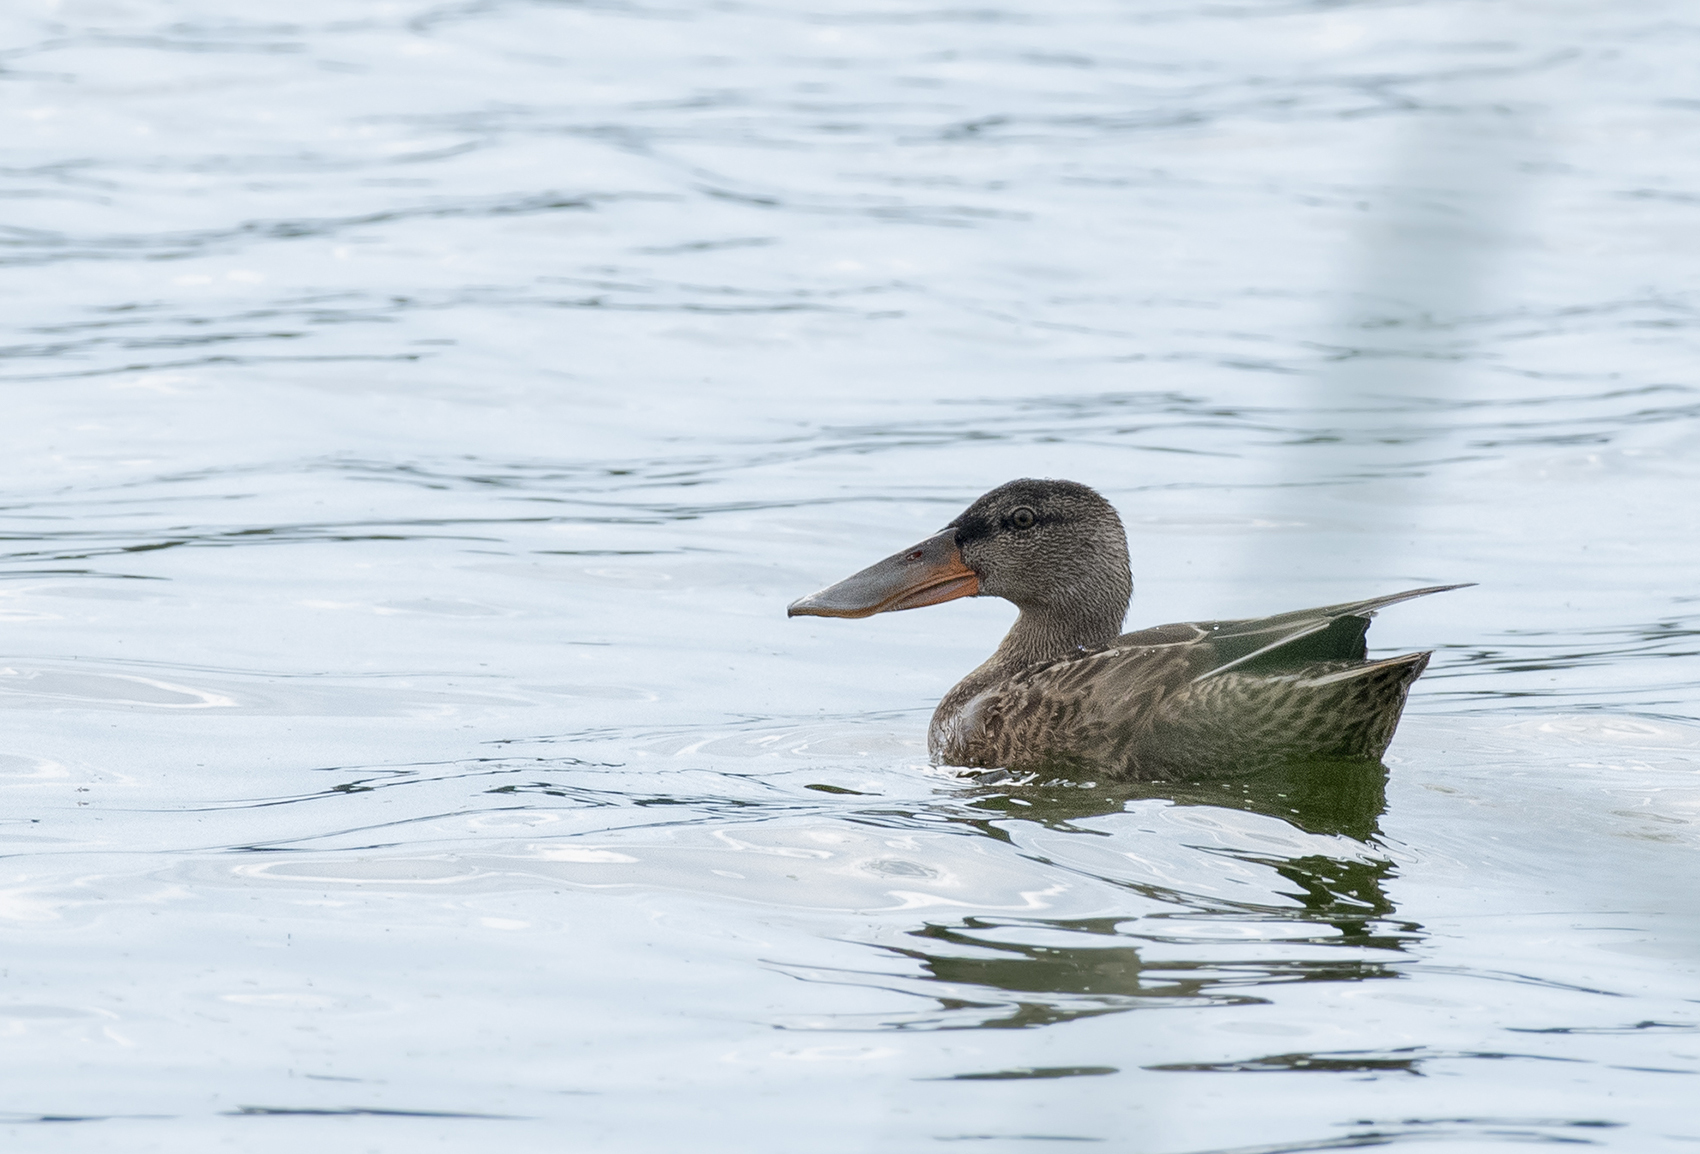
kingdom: Animalia
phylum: Chordata
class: Aves
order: Anseriformes
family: Anatidae
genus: Spatula
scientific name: Spatula clypeata
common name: Northern shoveler
